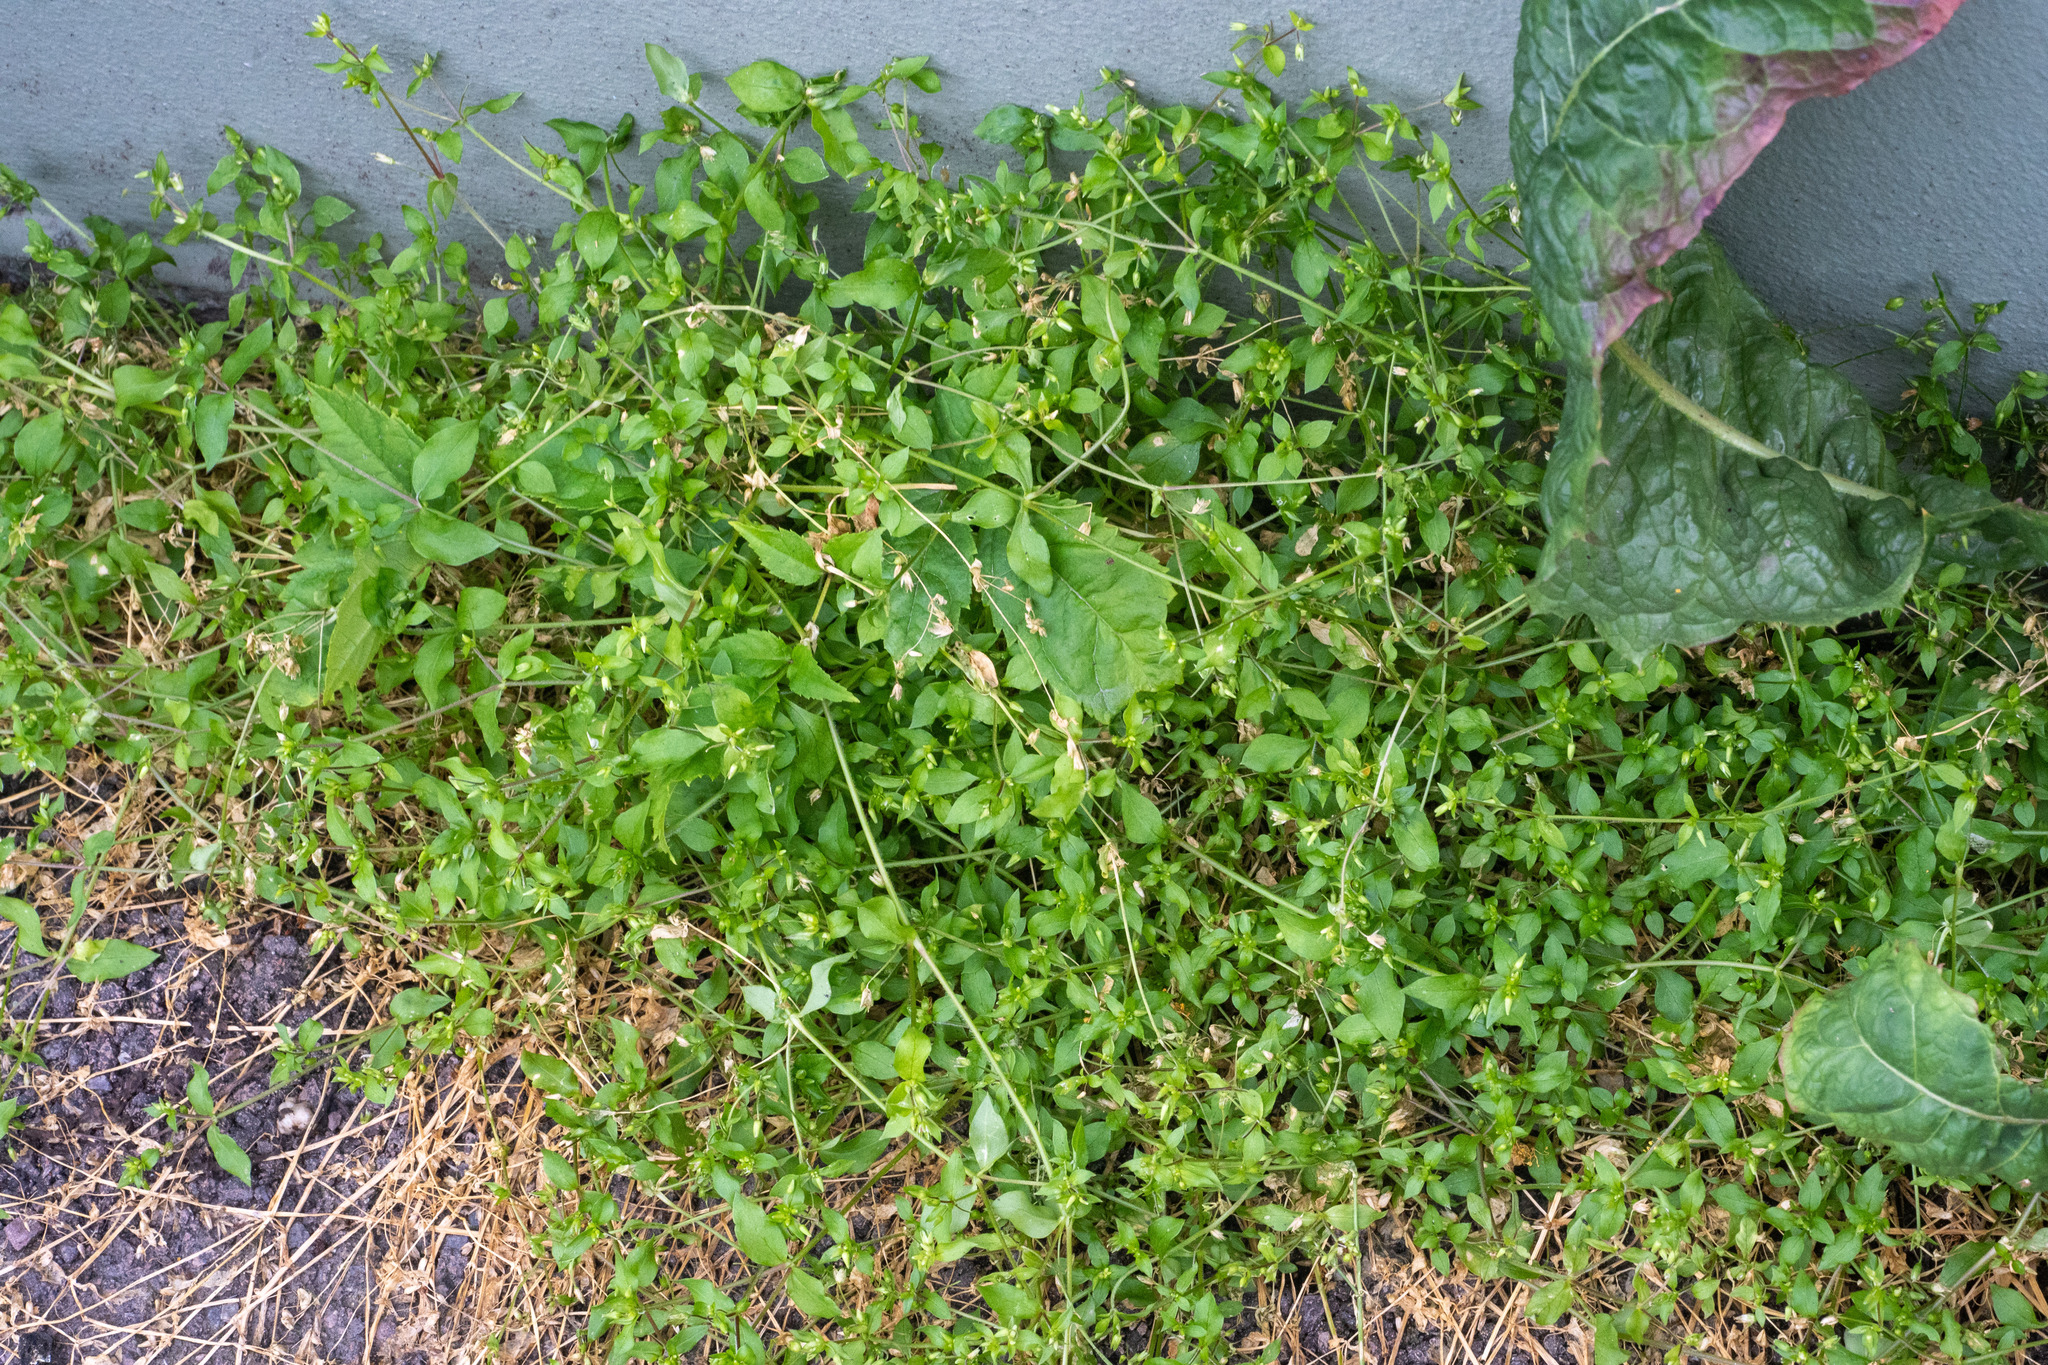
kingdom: Plantae
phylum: Tracheophyta
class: Magnoliopsida
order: Caryophyllales
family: Caryophyllaceae
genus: Stellaria
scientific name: Stellaria media
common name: Common chickweed
